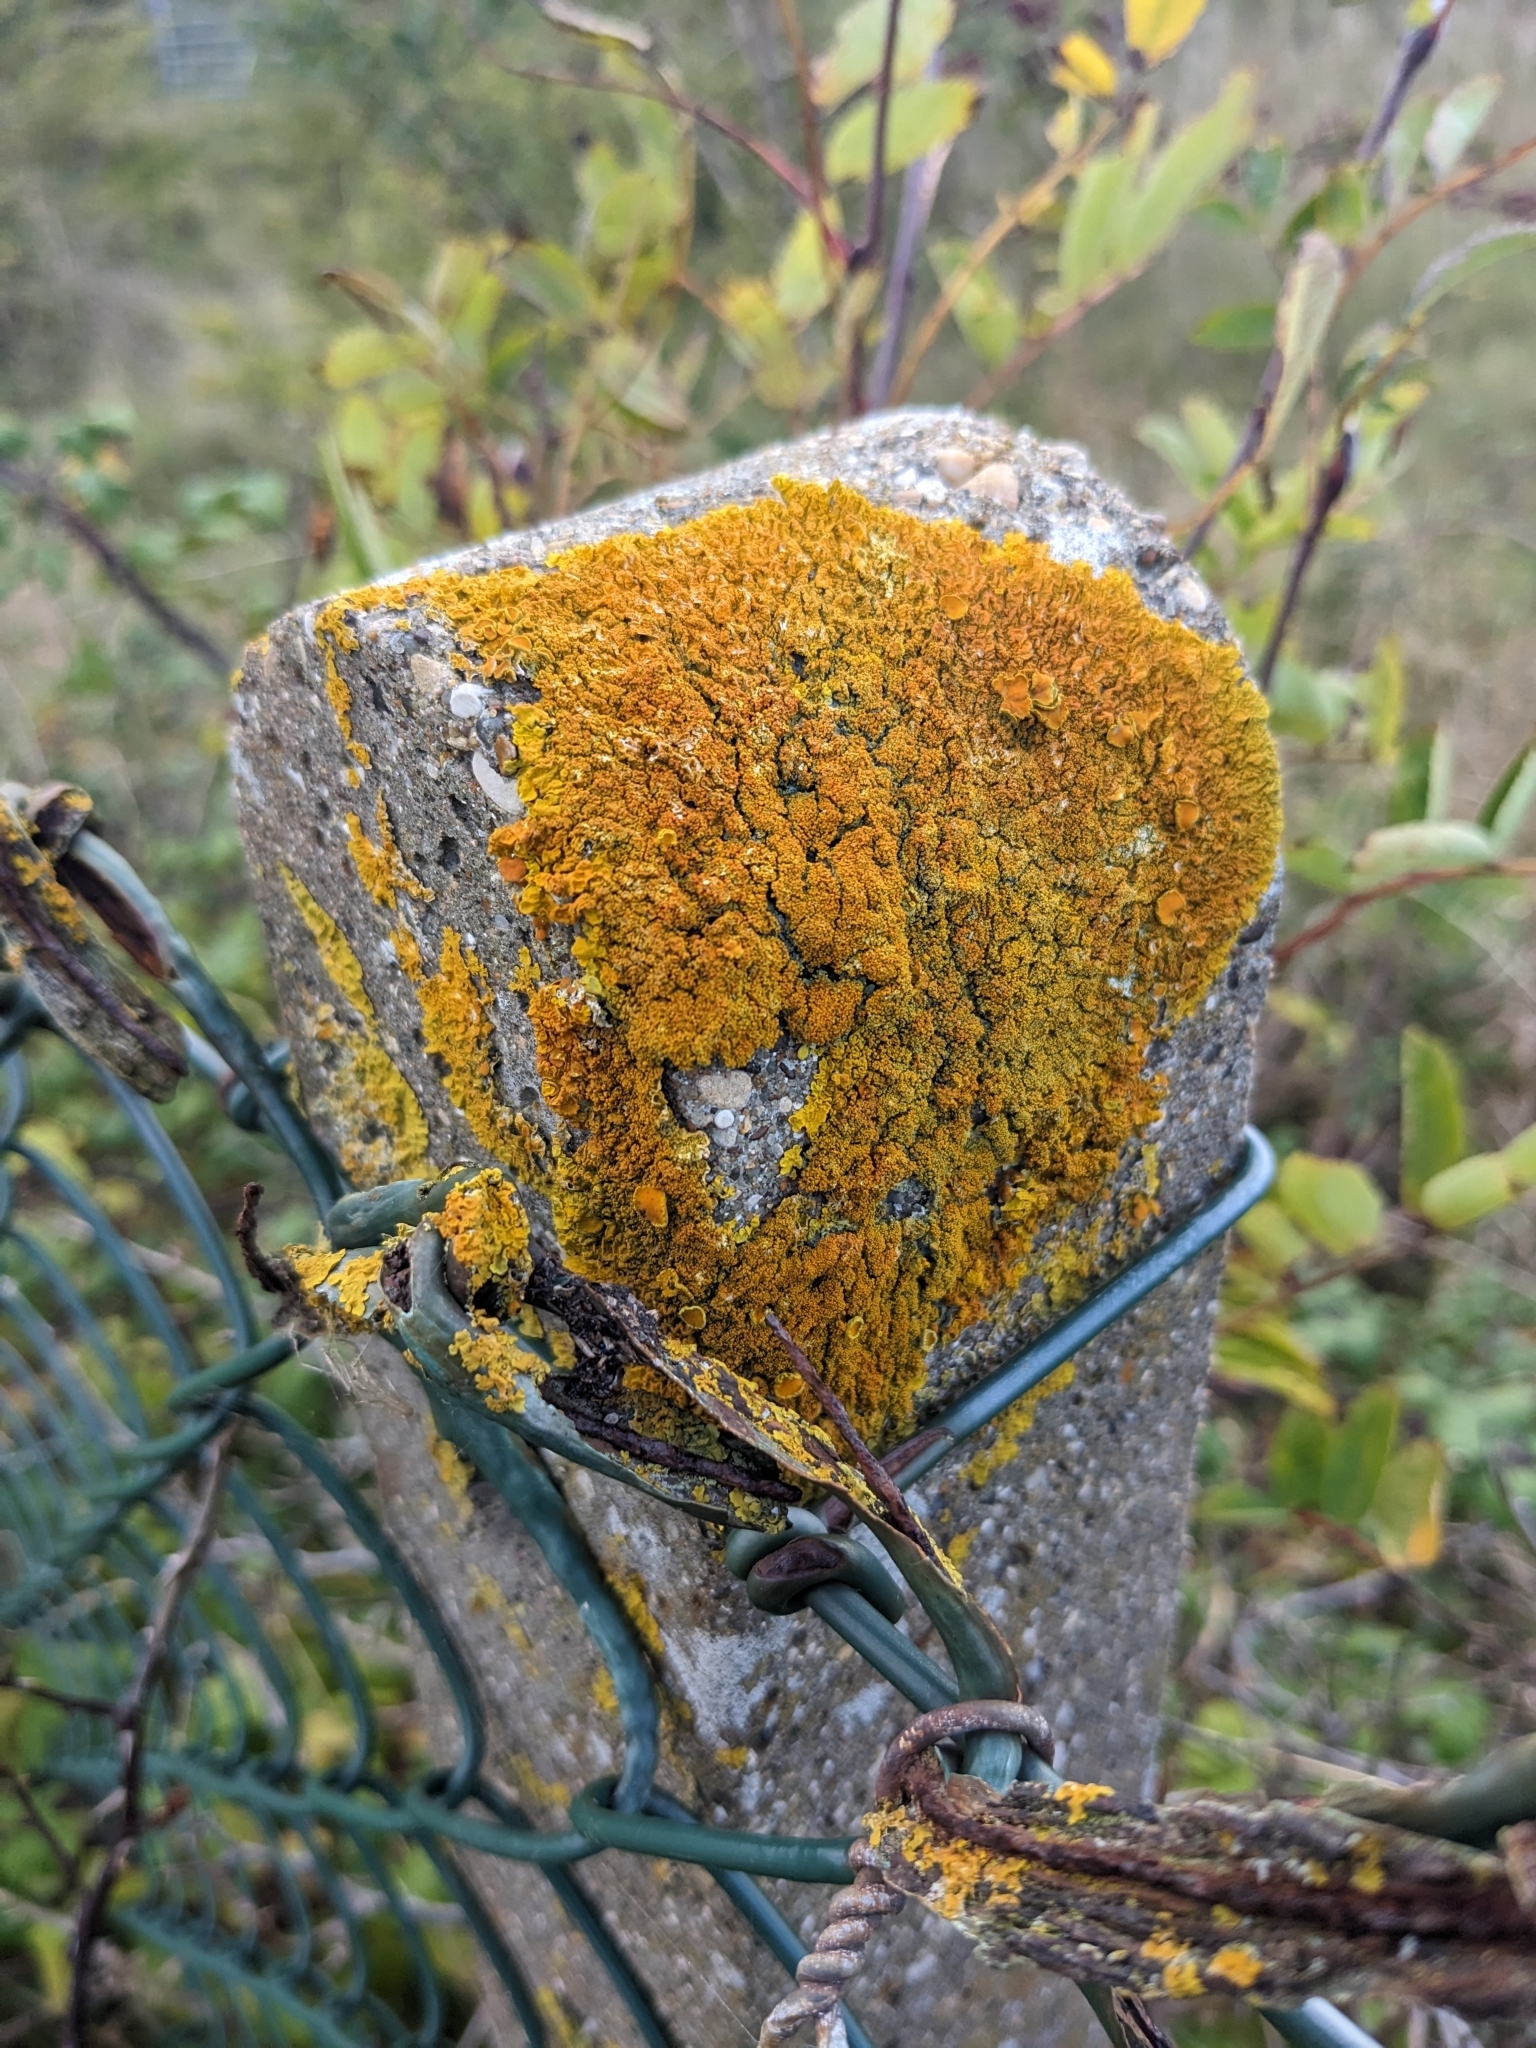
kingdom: Fungi
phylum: Ascomycota
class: Lecanoromycetes
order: Teloschistales
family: Teloschistaceae
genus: Xanthoria
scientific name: Xanthoria calcicola
